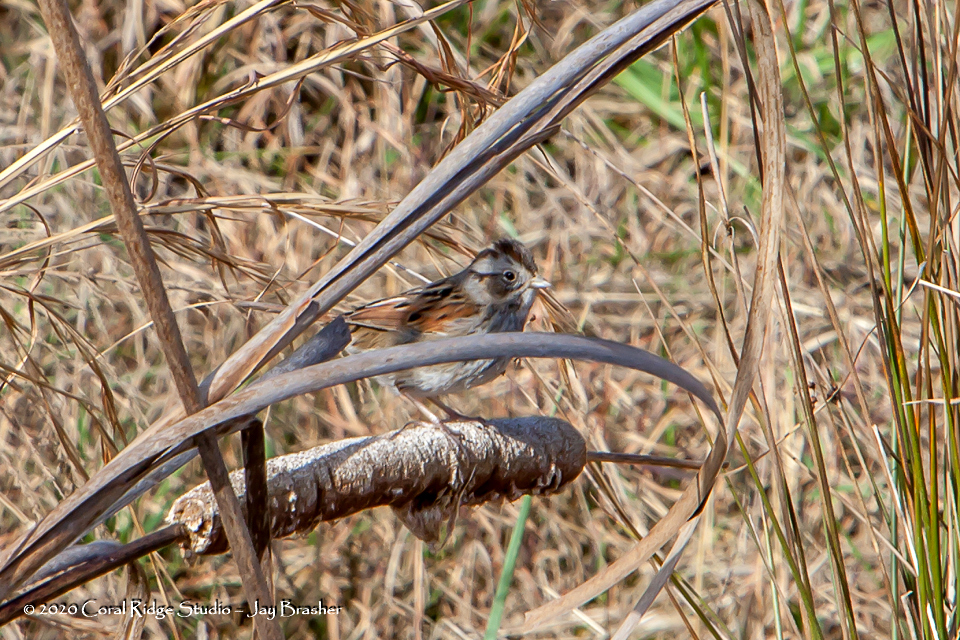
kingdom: Animalia
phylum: Chordata
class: Aves
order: Passeriformes
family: Passerellidae
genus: Melospiza
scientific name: Melospiza georgiana
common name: Swamp sparrow
